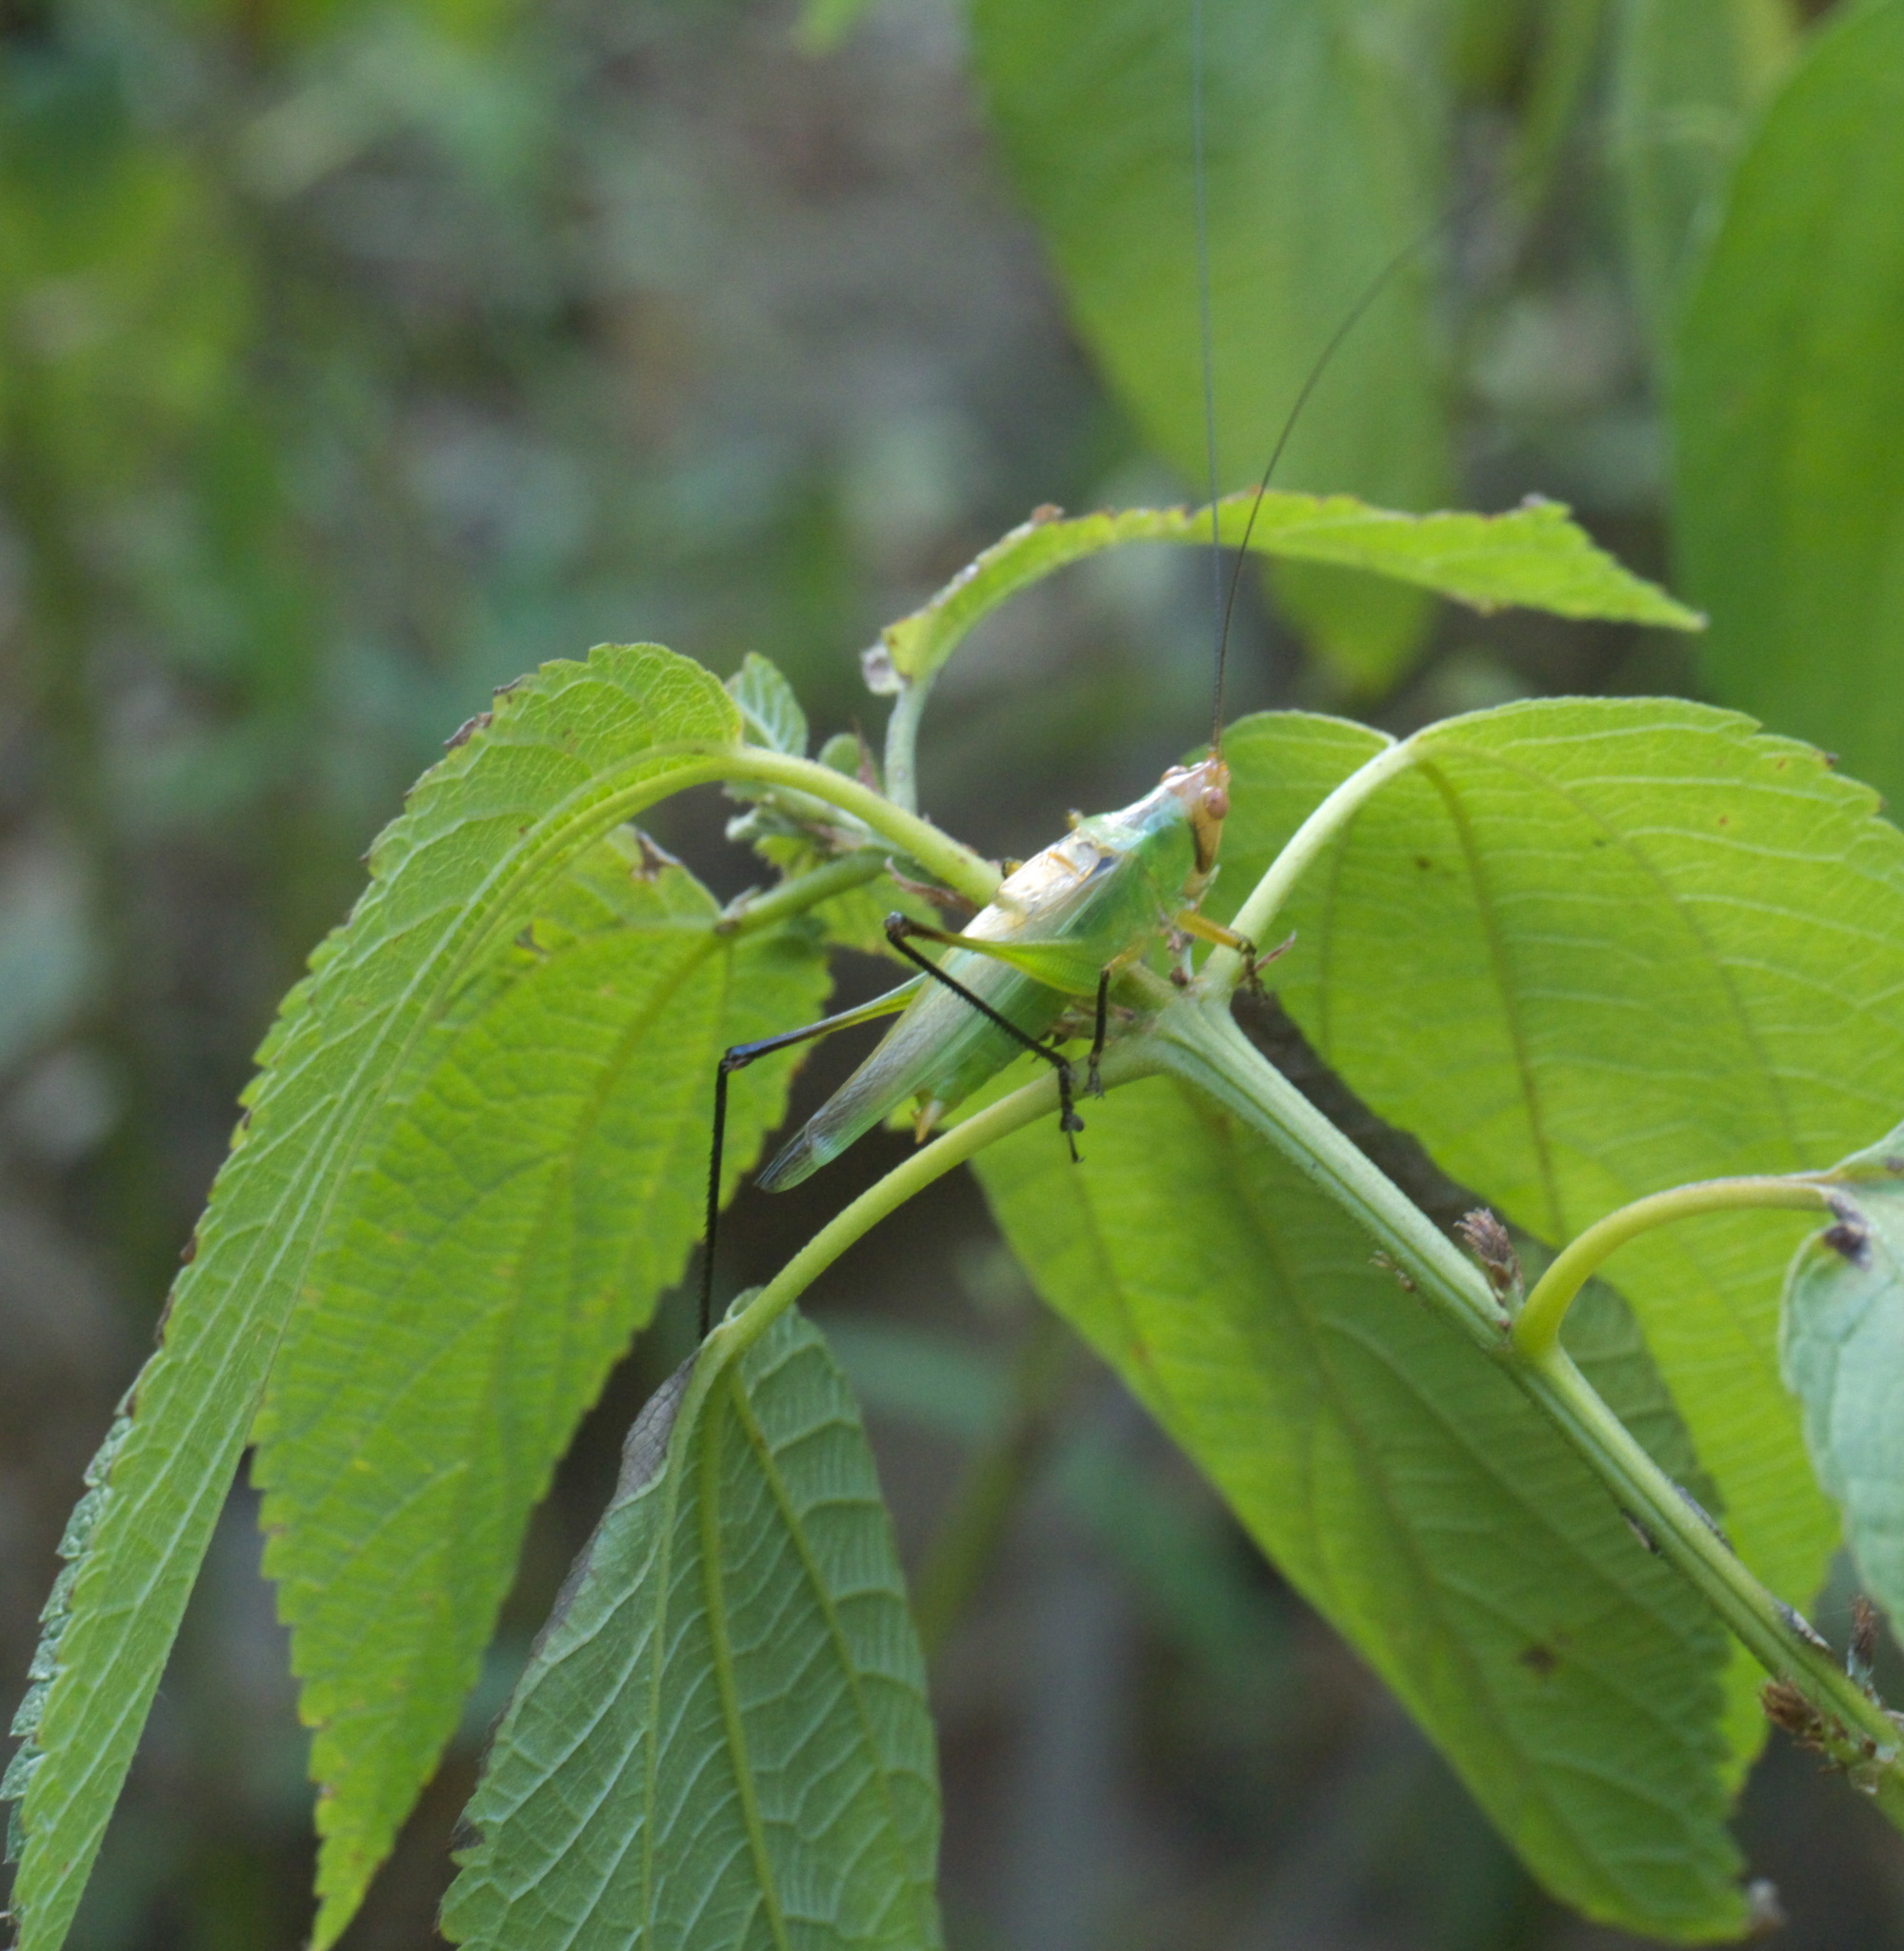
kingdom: Animalia
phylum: Arthropoda
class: Insecta
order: Orthoptera
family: Tettigoniidae
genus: Orchelimum
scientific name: Orchelimum nigripes
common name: Black-legged meadow katydid
